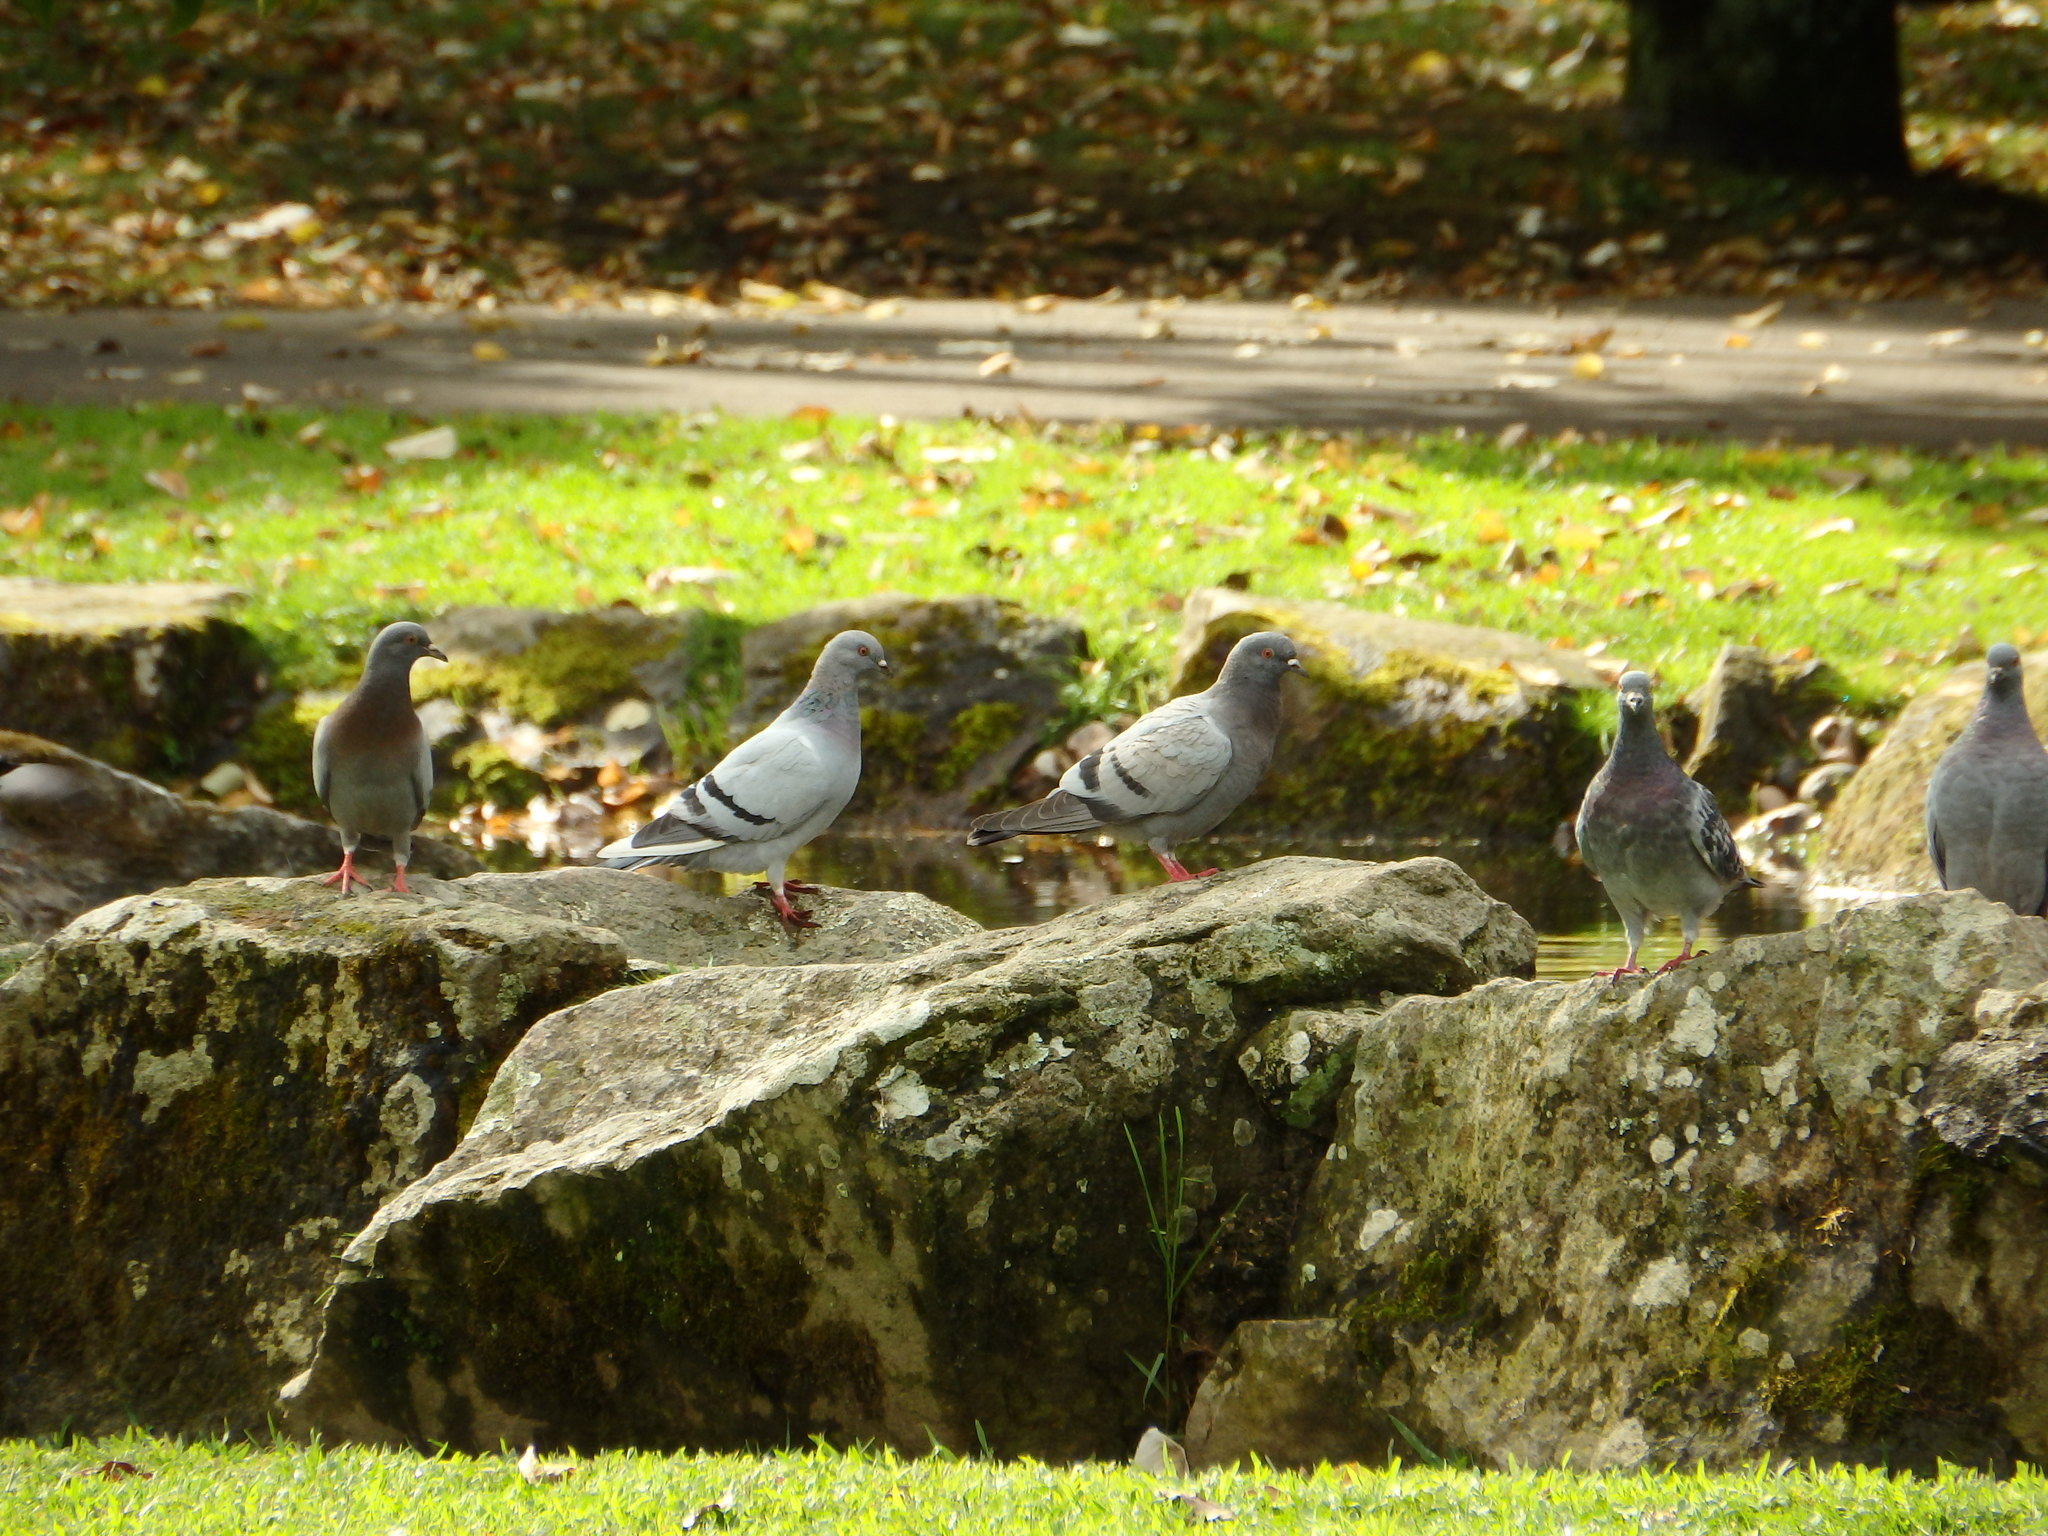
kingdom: Animalia
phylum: Chordata
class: Aves
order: Columbiformes
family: Columbidae
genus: Columba
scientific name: Columba livia
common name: Rock pigeon
